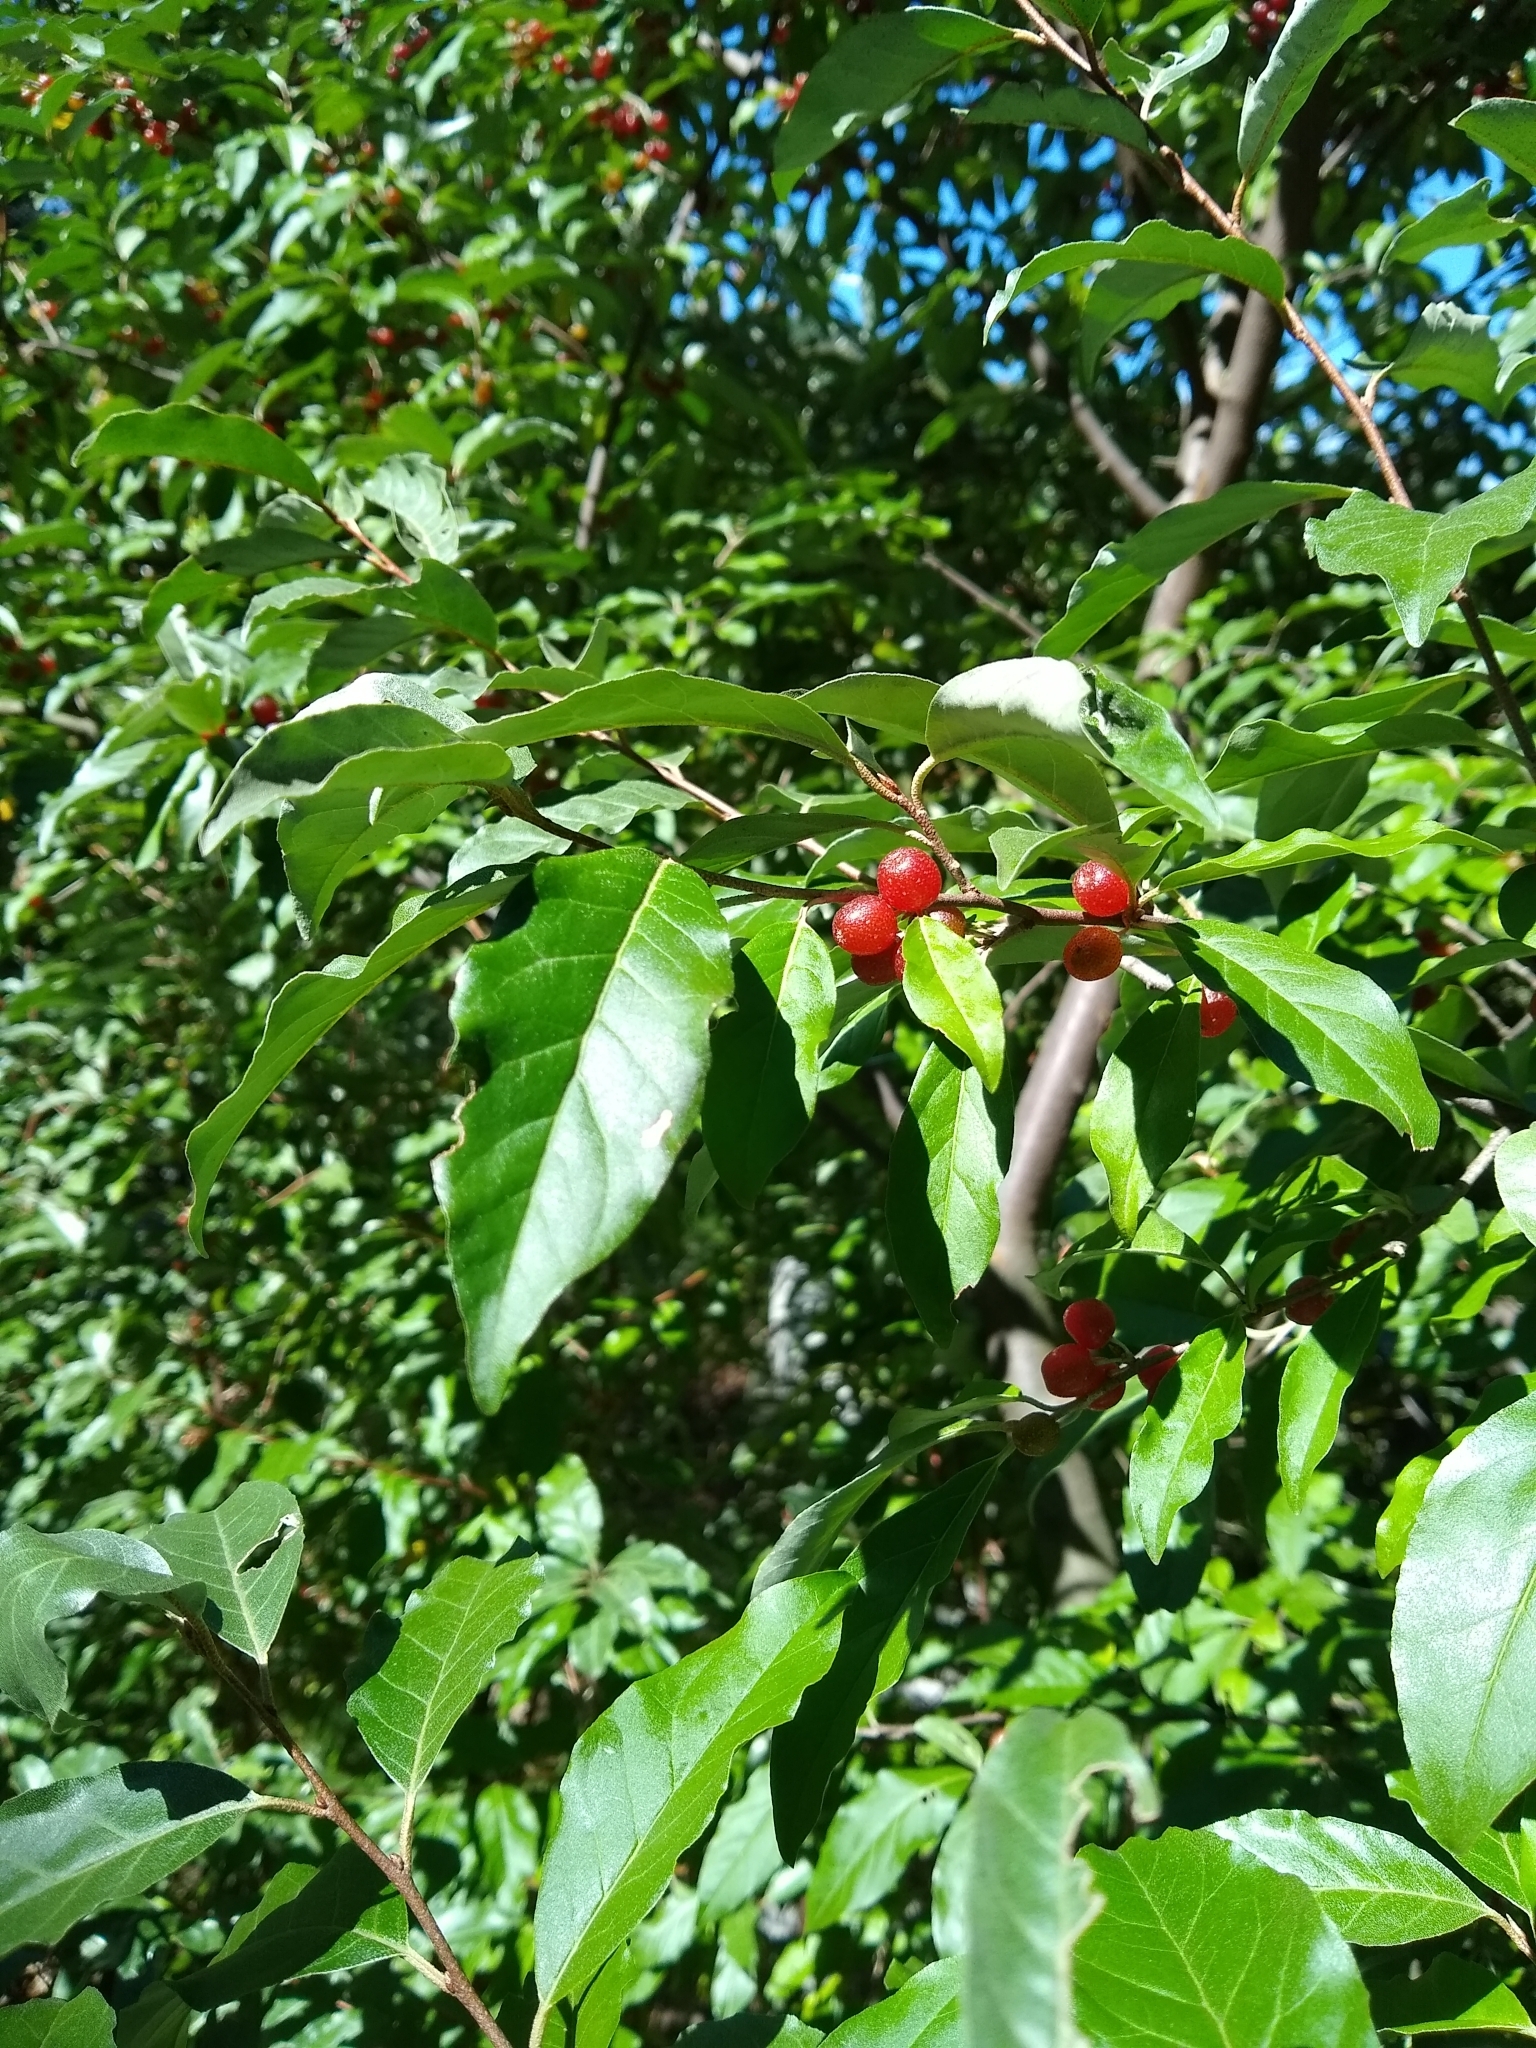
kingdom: Plantae
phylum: Tracheophyta
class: Magnoliopsida
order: Rosales
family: Elaeagnaceae
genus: Elaeagnus
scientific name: Elaeagnus umbellata
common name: Autumn olive
